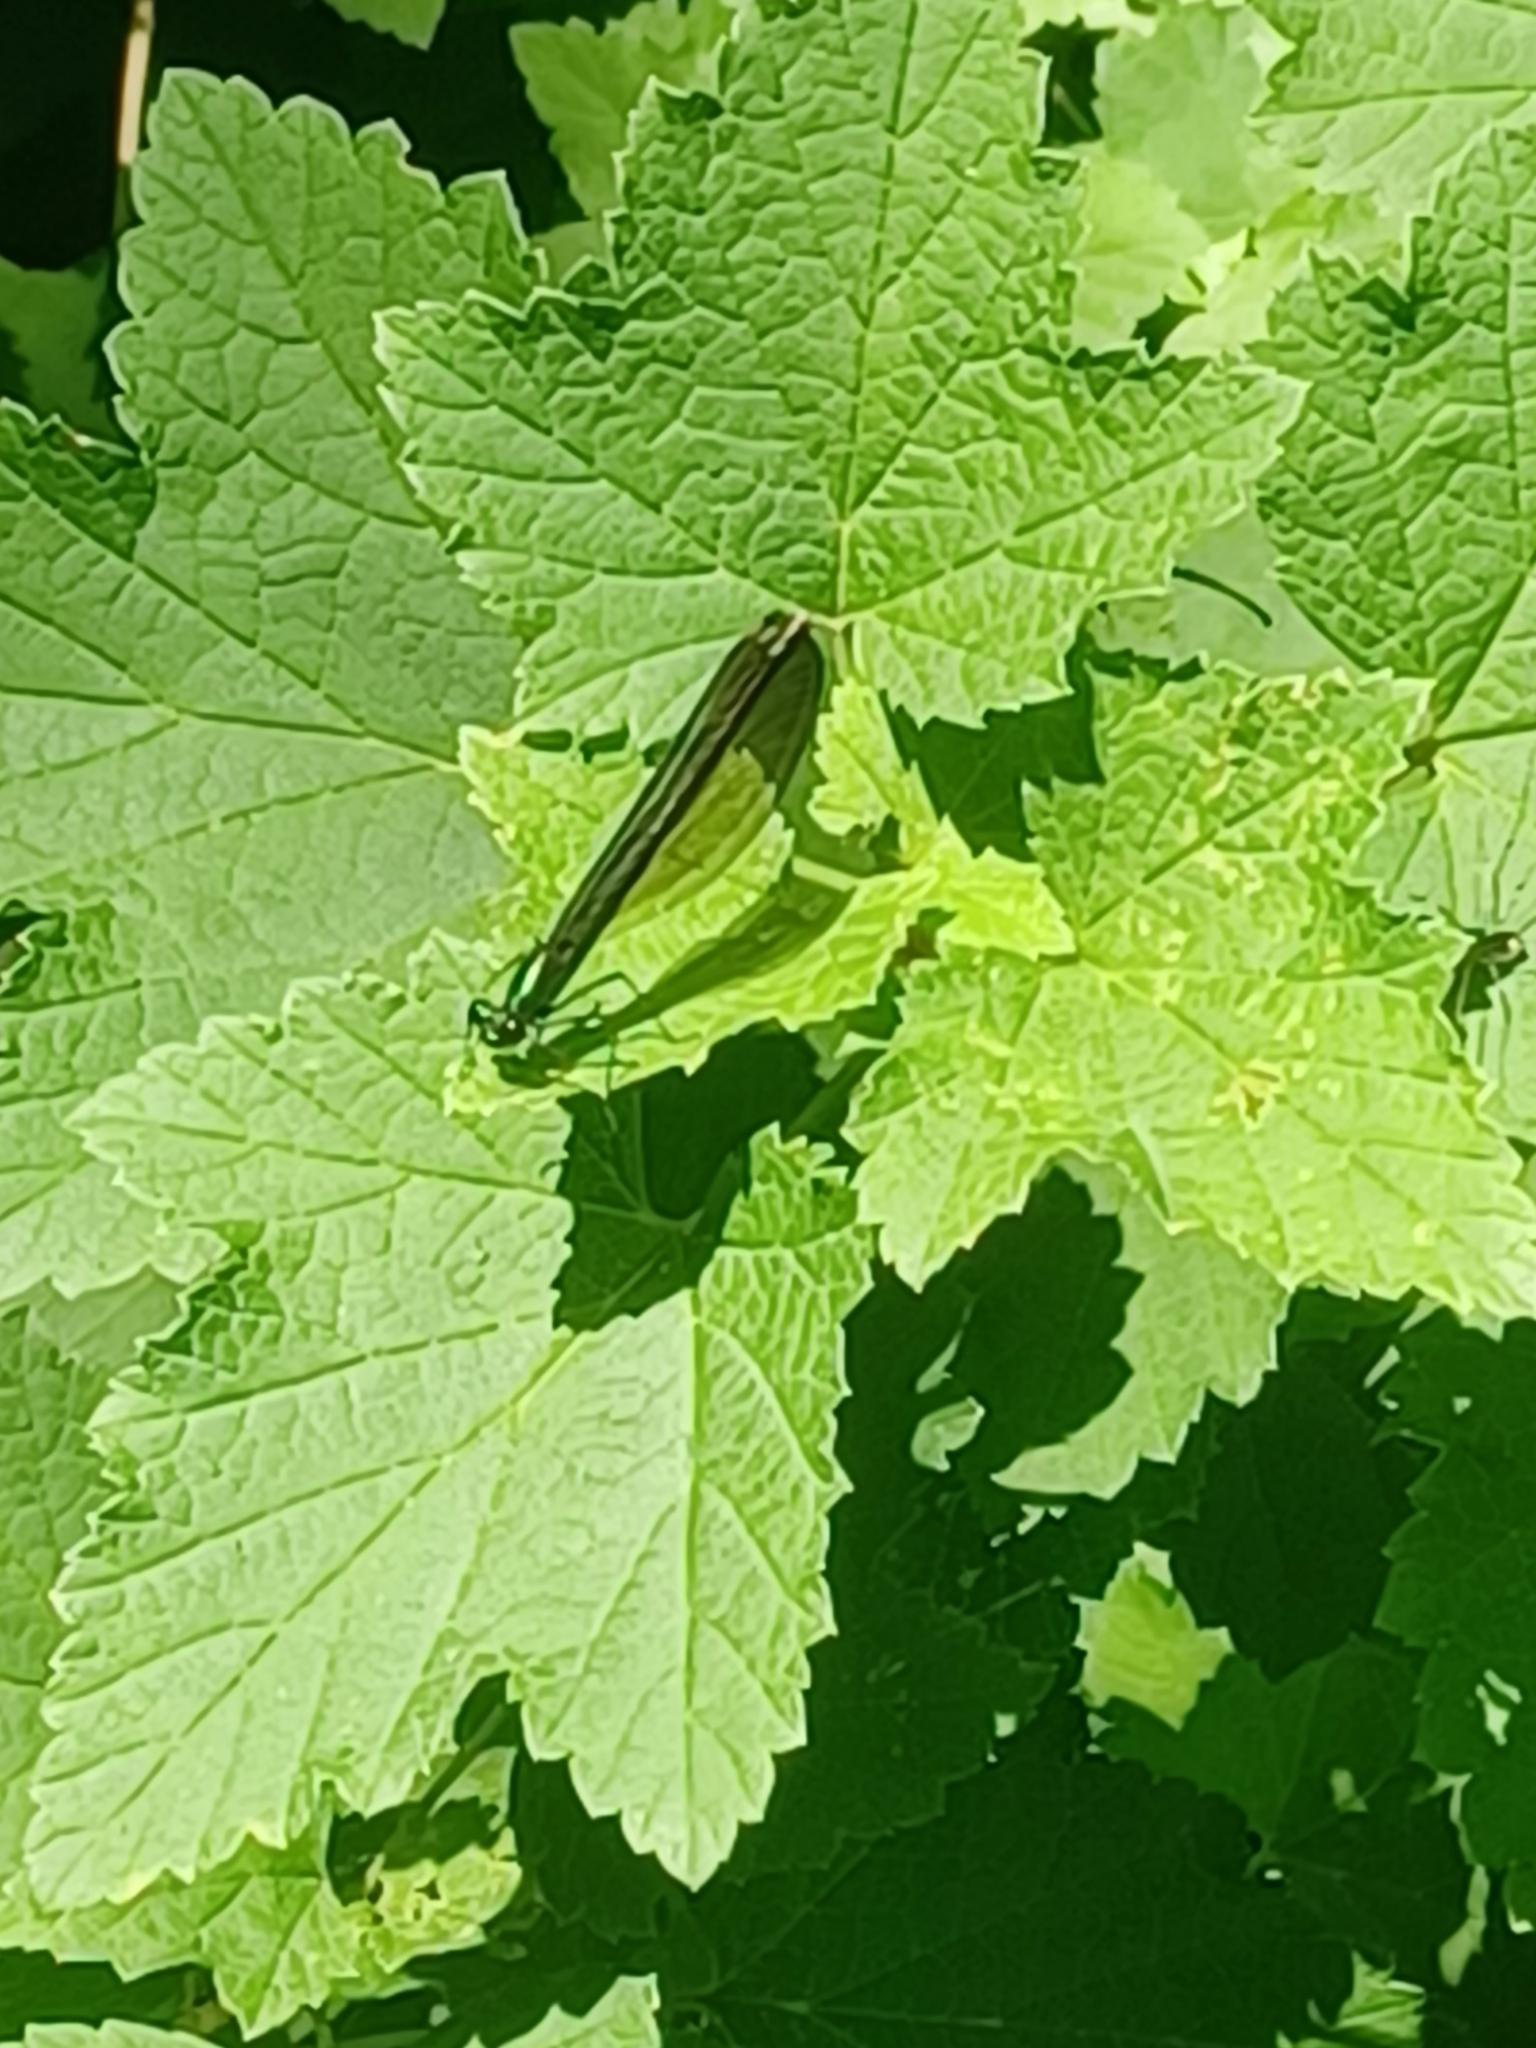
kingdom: Animalia
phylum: Arthropoda
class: Insecta
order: Odonata
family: Calopterygidae
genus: Calopteryx
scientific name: Calopteryx maculata
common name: Ebony jewelwing
